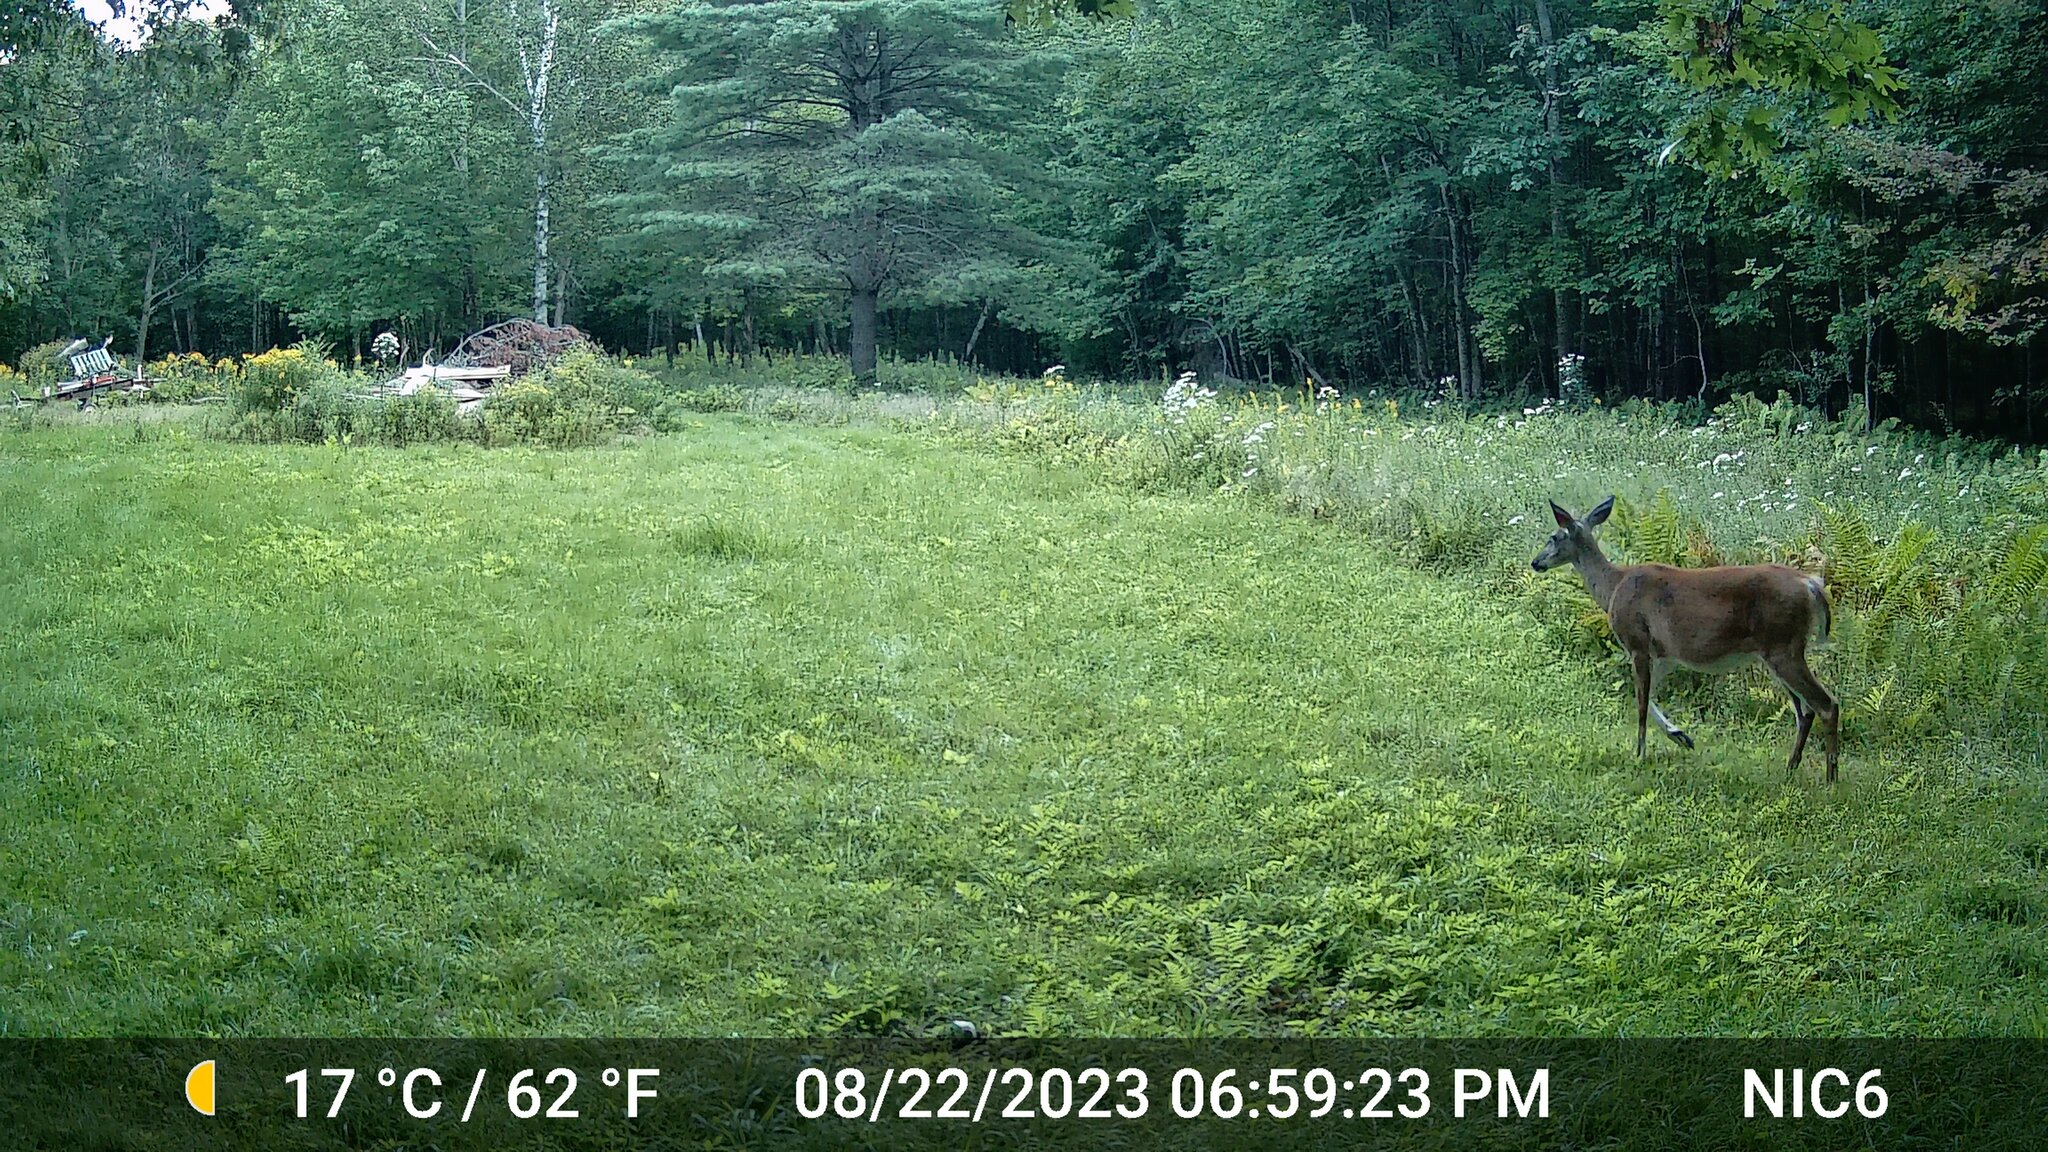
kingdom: Animalia
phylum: Chordata
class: Mammalia
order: Artiodactyla
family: Cervidae
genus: Odocoileus
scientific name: Odocoileus virginianus
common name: White-tailed deer
